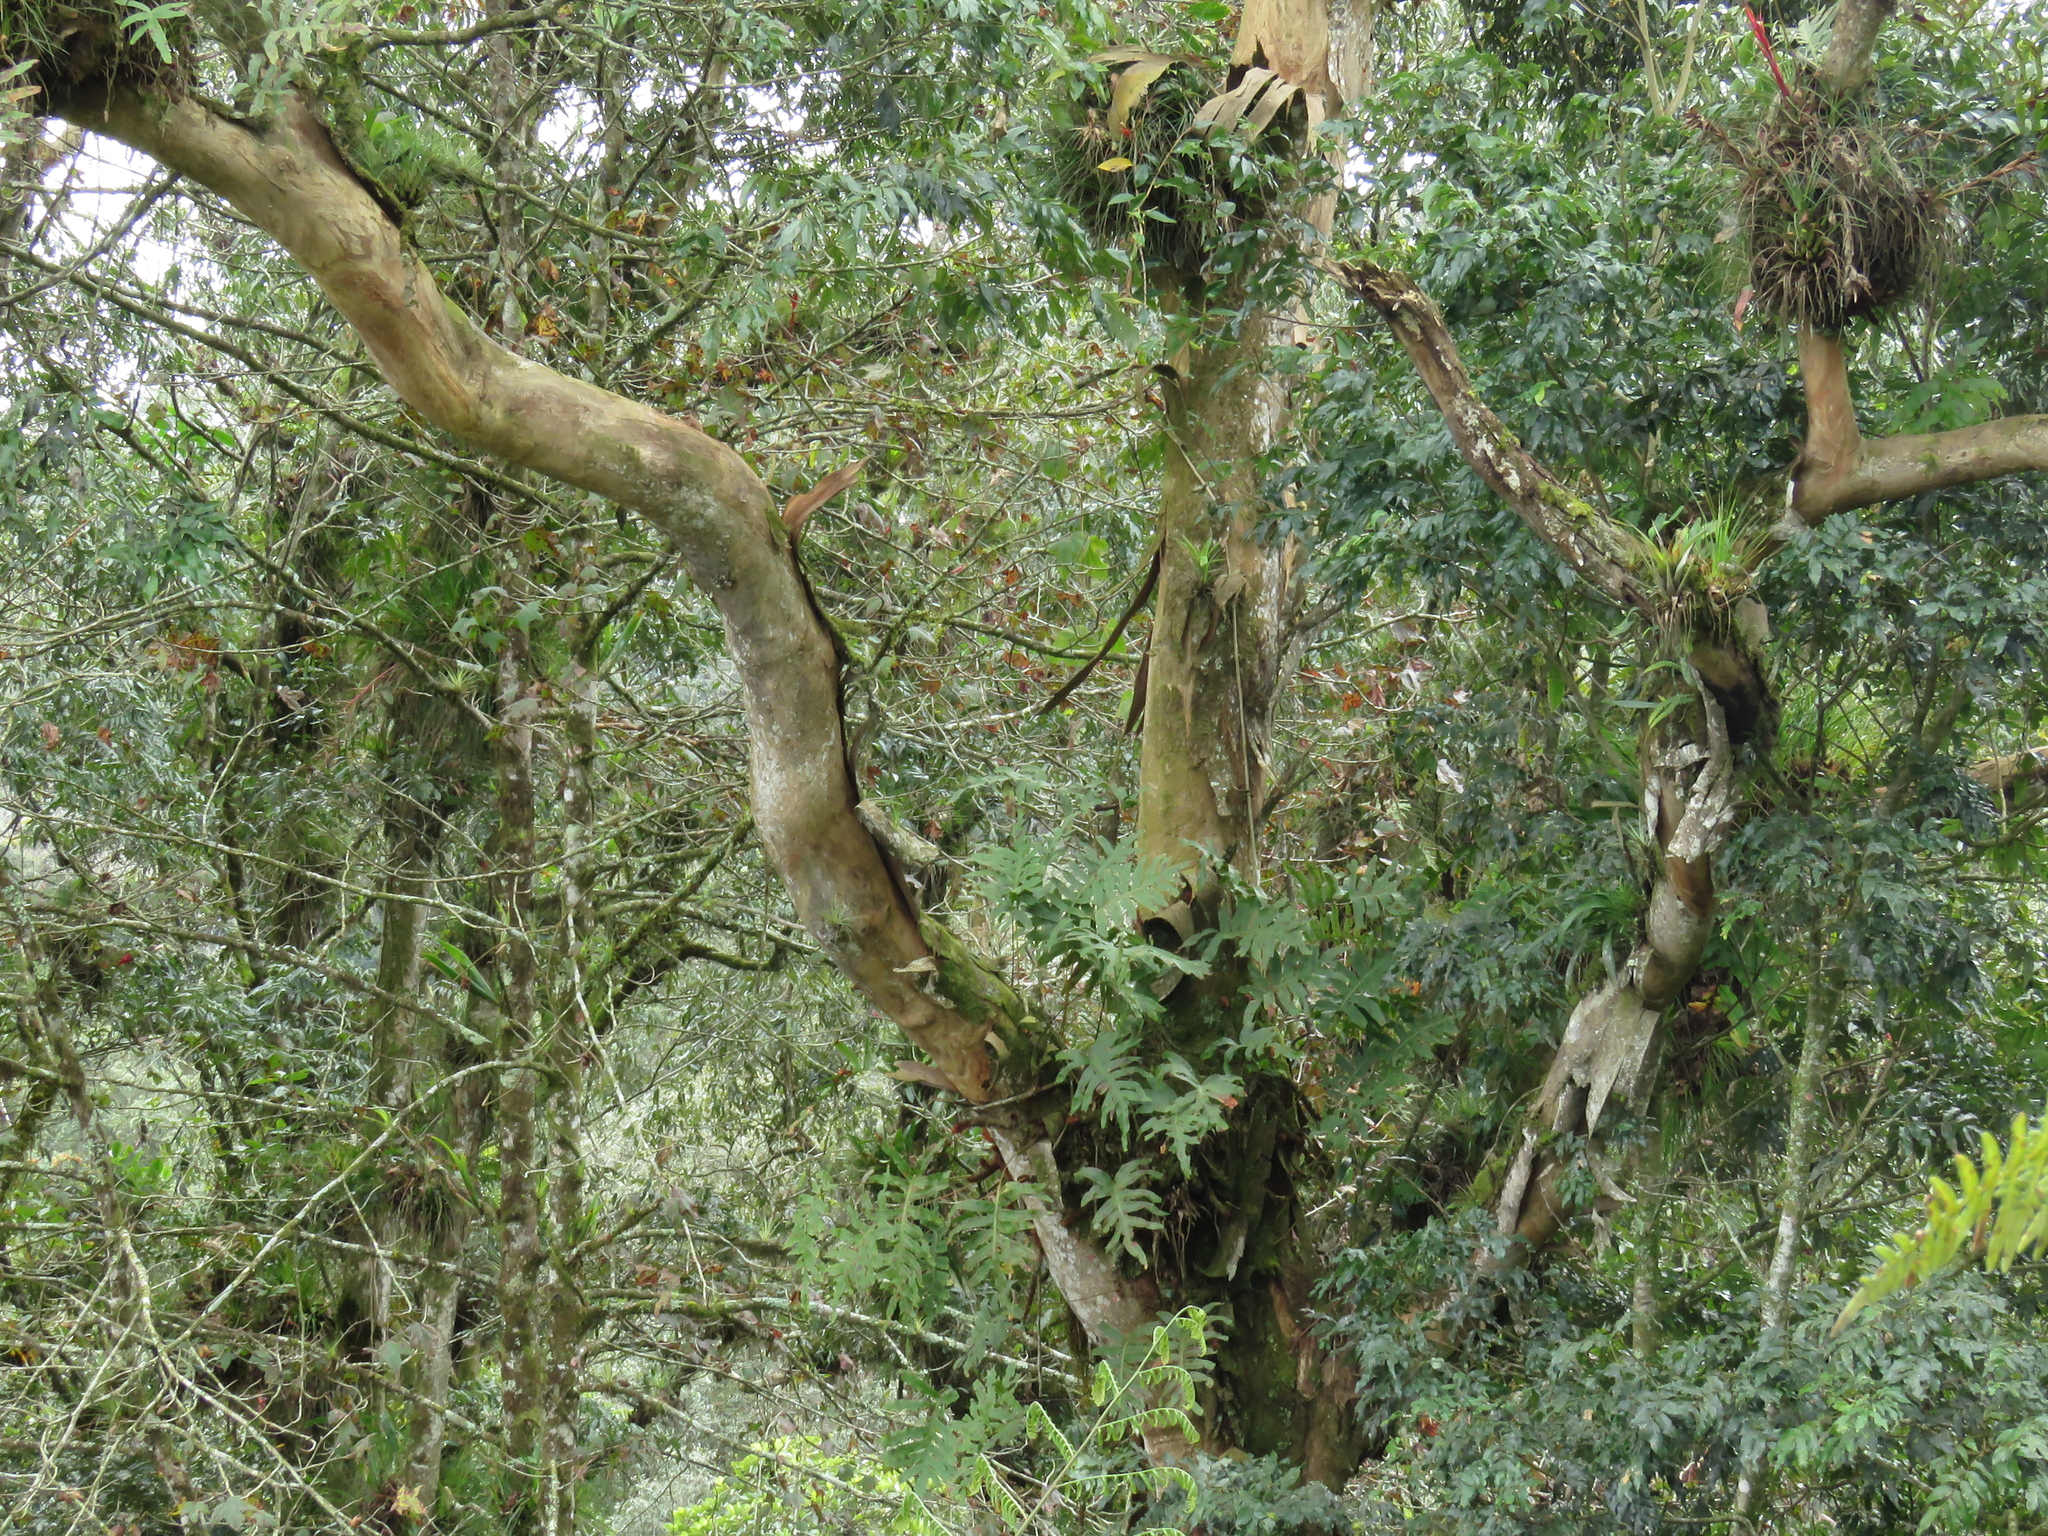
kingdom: Plantae
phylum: Tracheophyta
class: Magnoliopsida
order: Fagales
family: Juglandaceae
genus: Oreomunnea
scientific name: Oreomunnea mexicana
